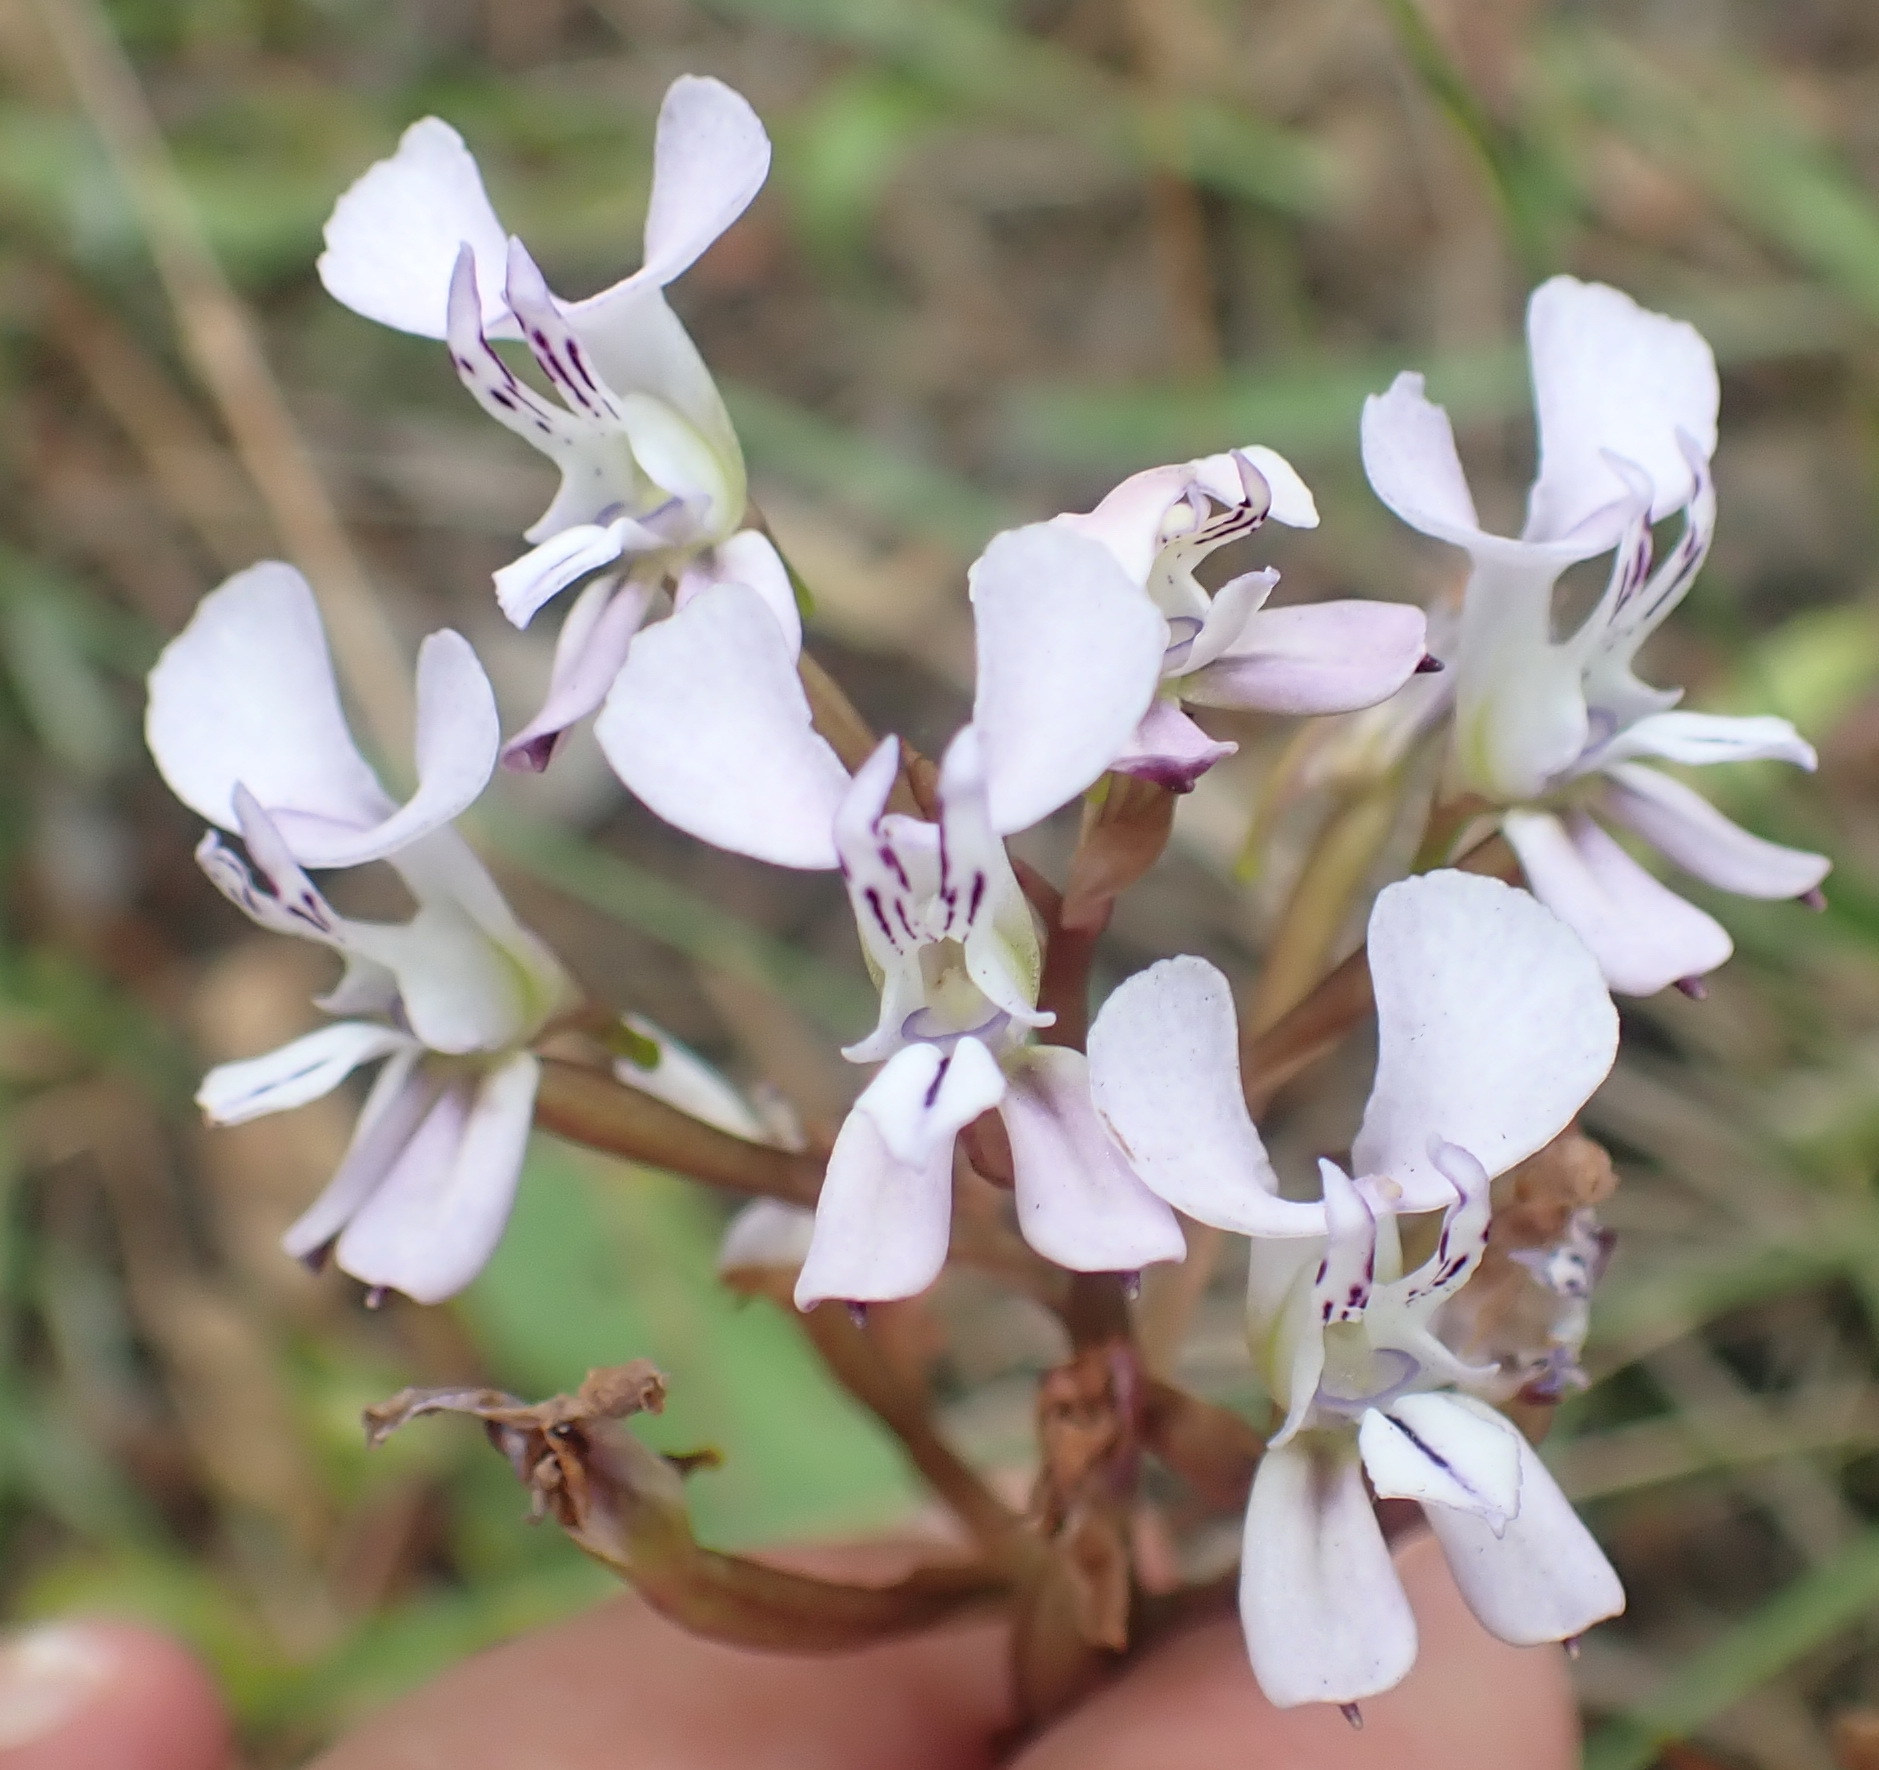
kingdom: Plantae
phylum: Tracheophyta
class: Liliopsida
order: Asparagales
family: Orchidaceae
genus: Disa
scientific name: Disa sagittalis
